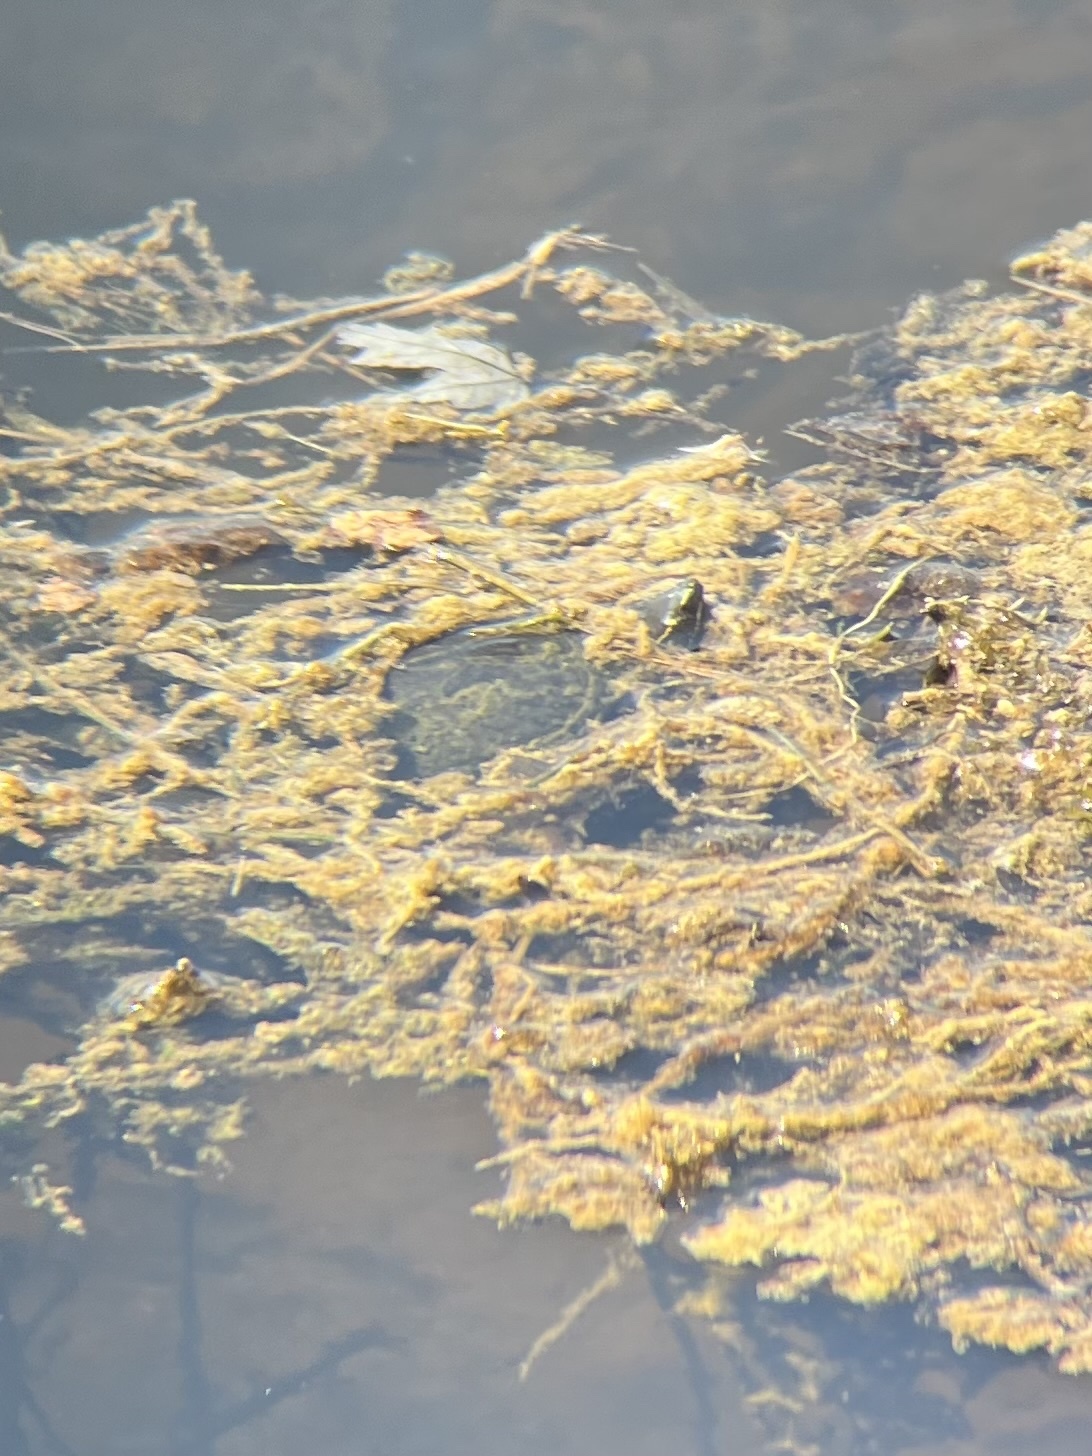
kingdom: Animalia
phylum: Chordata
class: Testudines
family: Kinosternidae
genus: Sternotherus
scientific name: Sternotherus odoratus
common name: Common musk turtle
